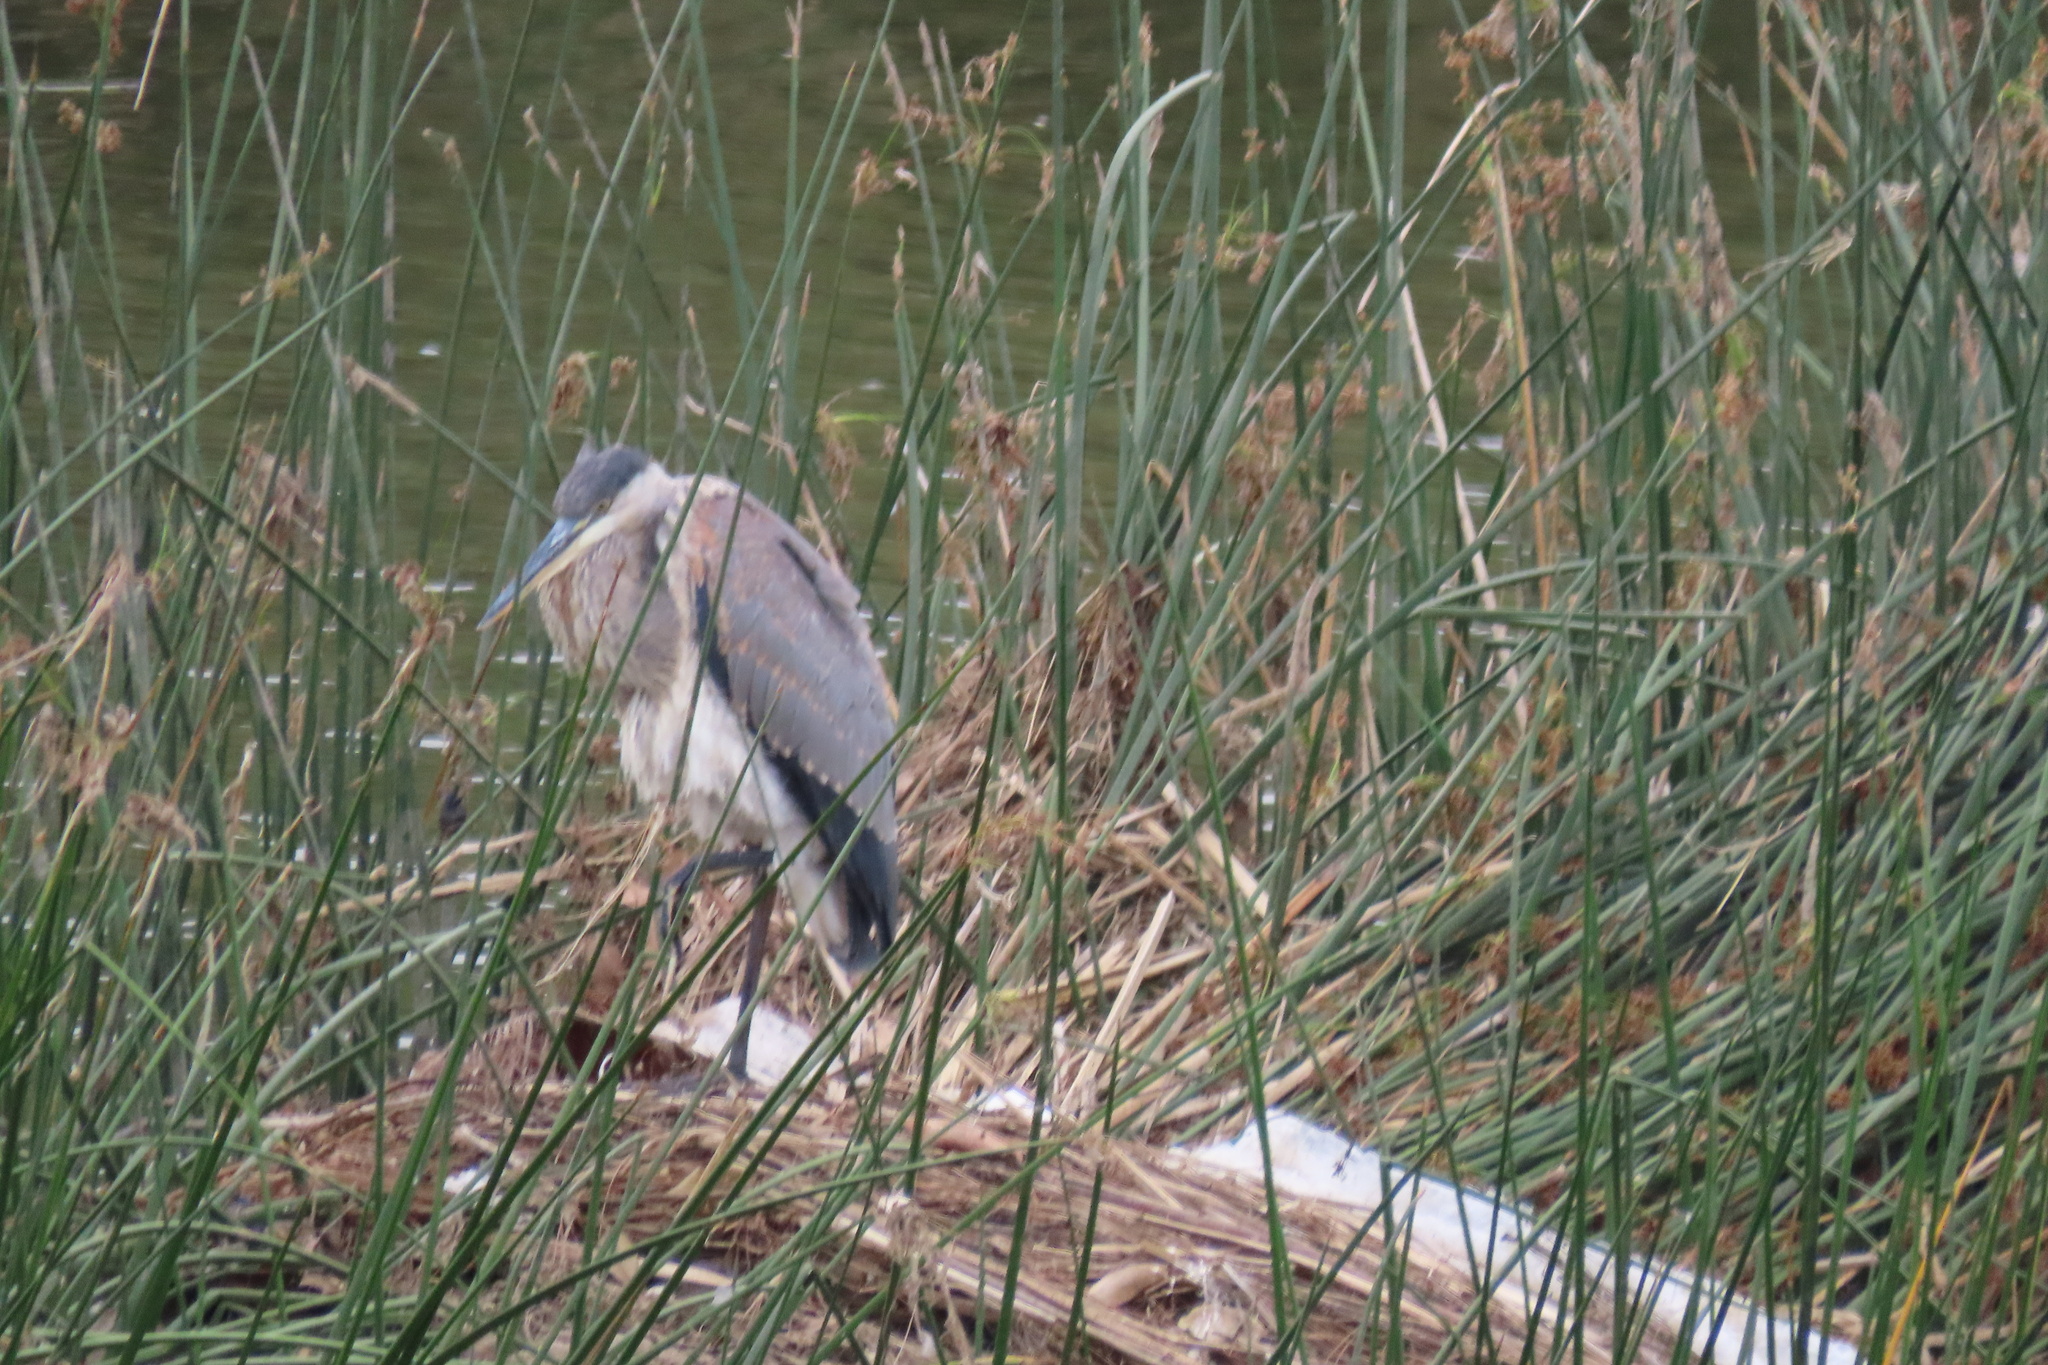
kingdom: Animalia
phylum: Chordata
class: Aves
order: Pelecaniformes
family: Ardeidae
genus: Ardea
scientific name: Ardea herodias
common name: Great blue heron
